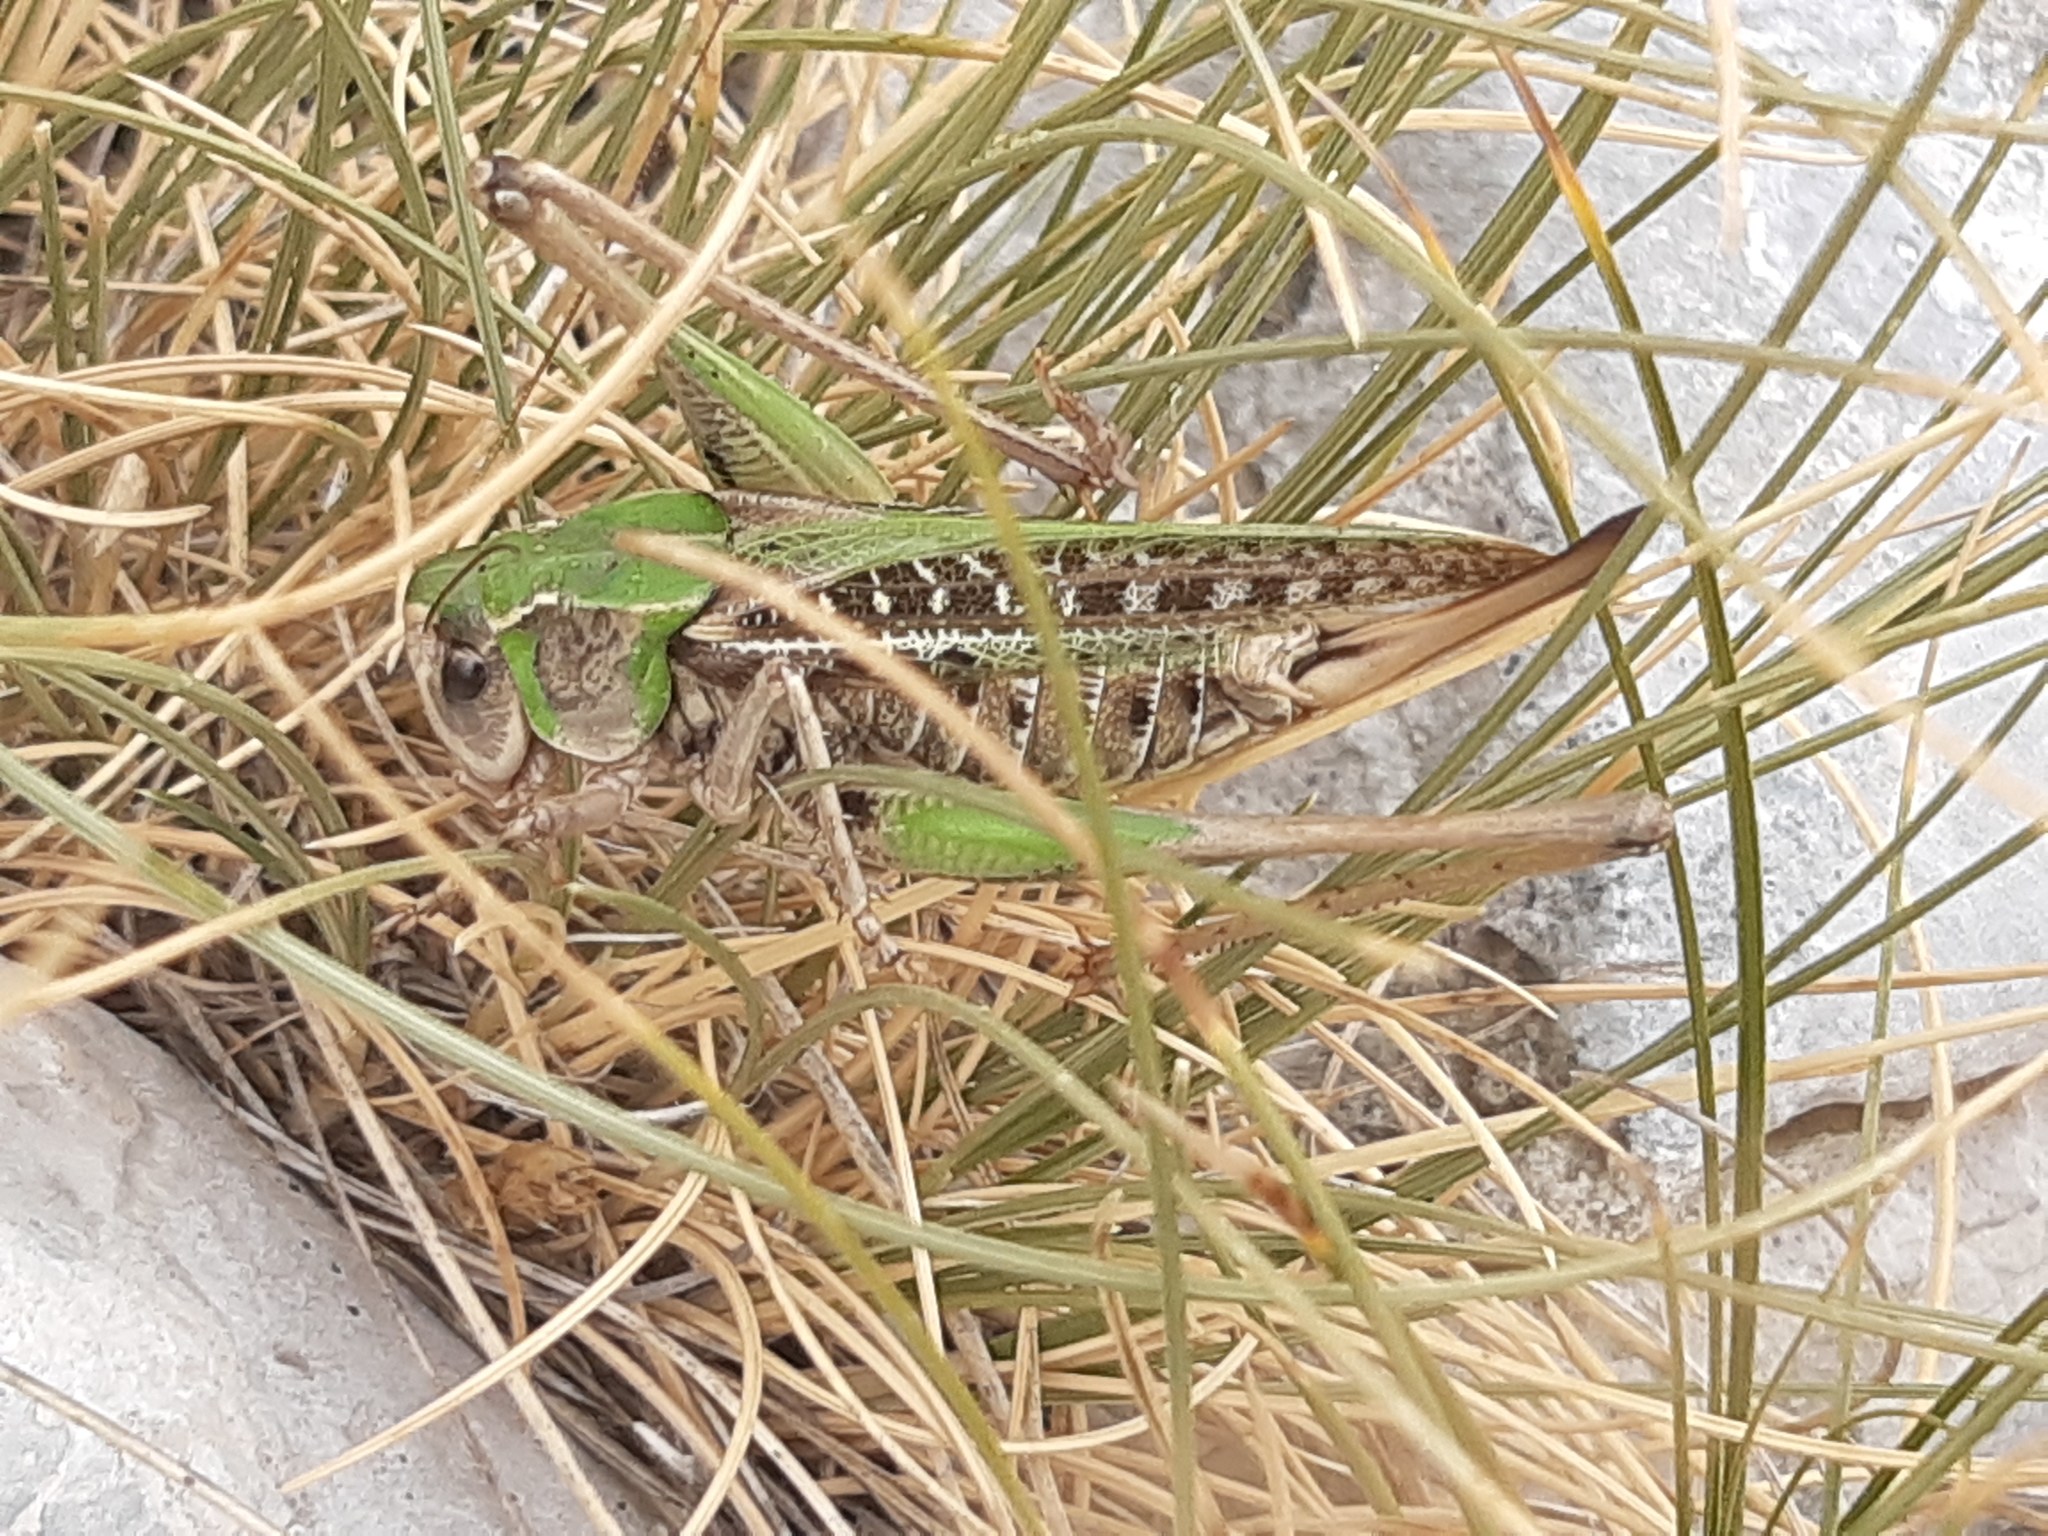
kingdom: Animalia
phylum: Arthropoda
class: Insecta
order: Orthoptera
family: Tettigoniidae
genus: Decticus
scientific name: Decticus verrucivorus
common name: Wart-biter
